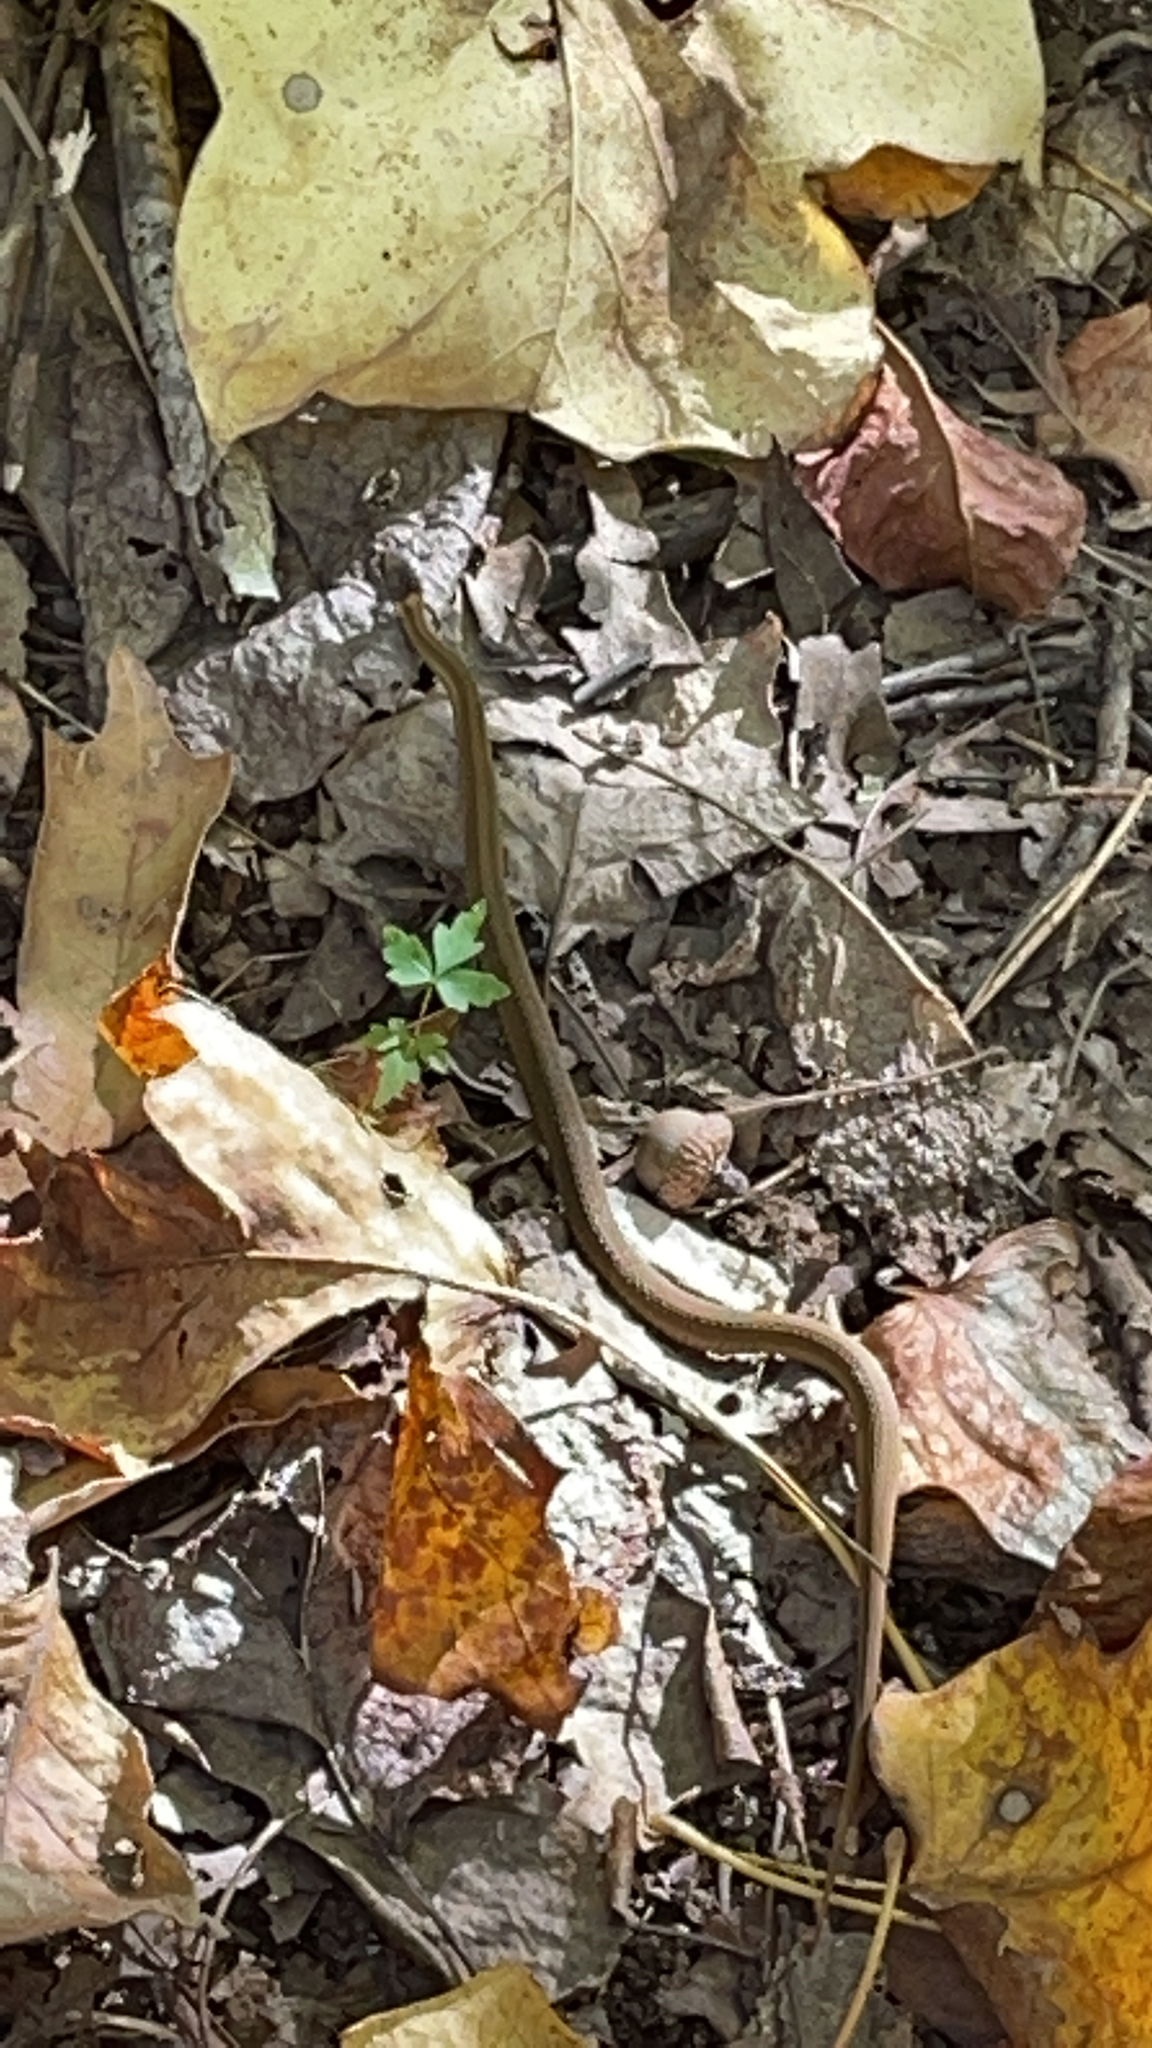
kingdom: Animalia
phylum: Chordata
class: Squamata
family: Colubridae
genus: Storeria
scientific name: Storeria occipitomaculata
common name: Redbelly snake
